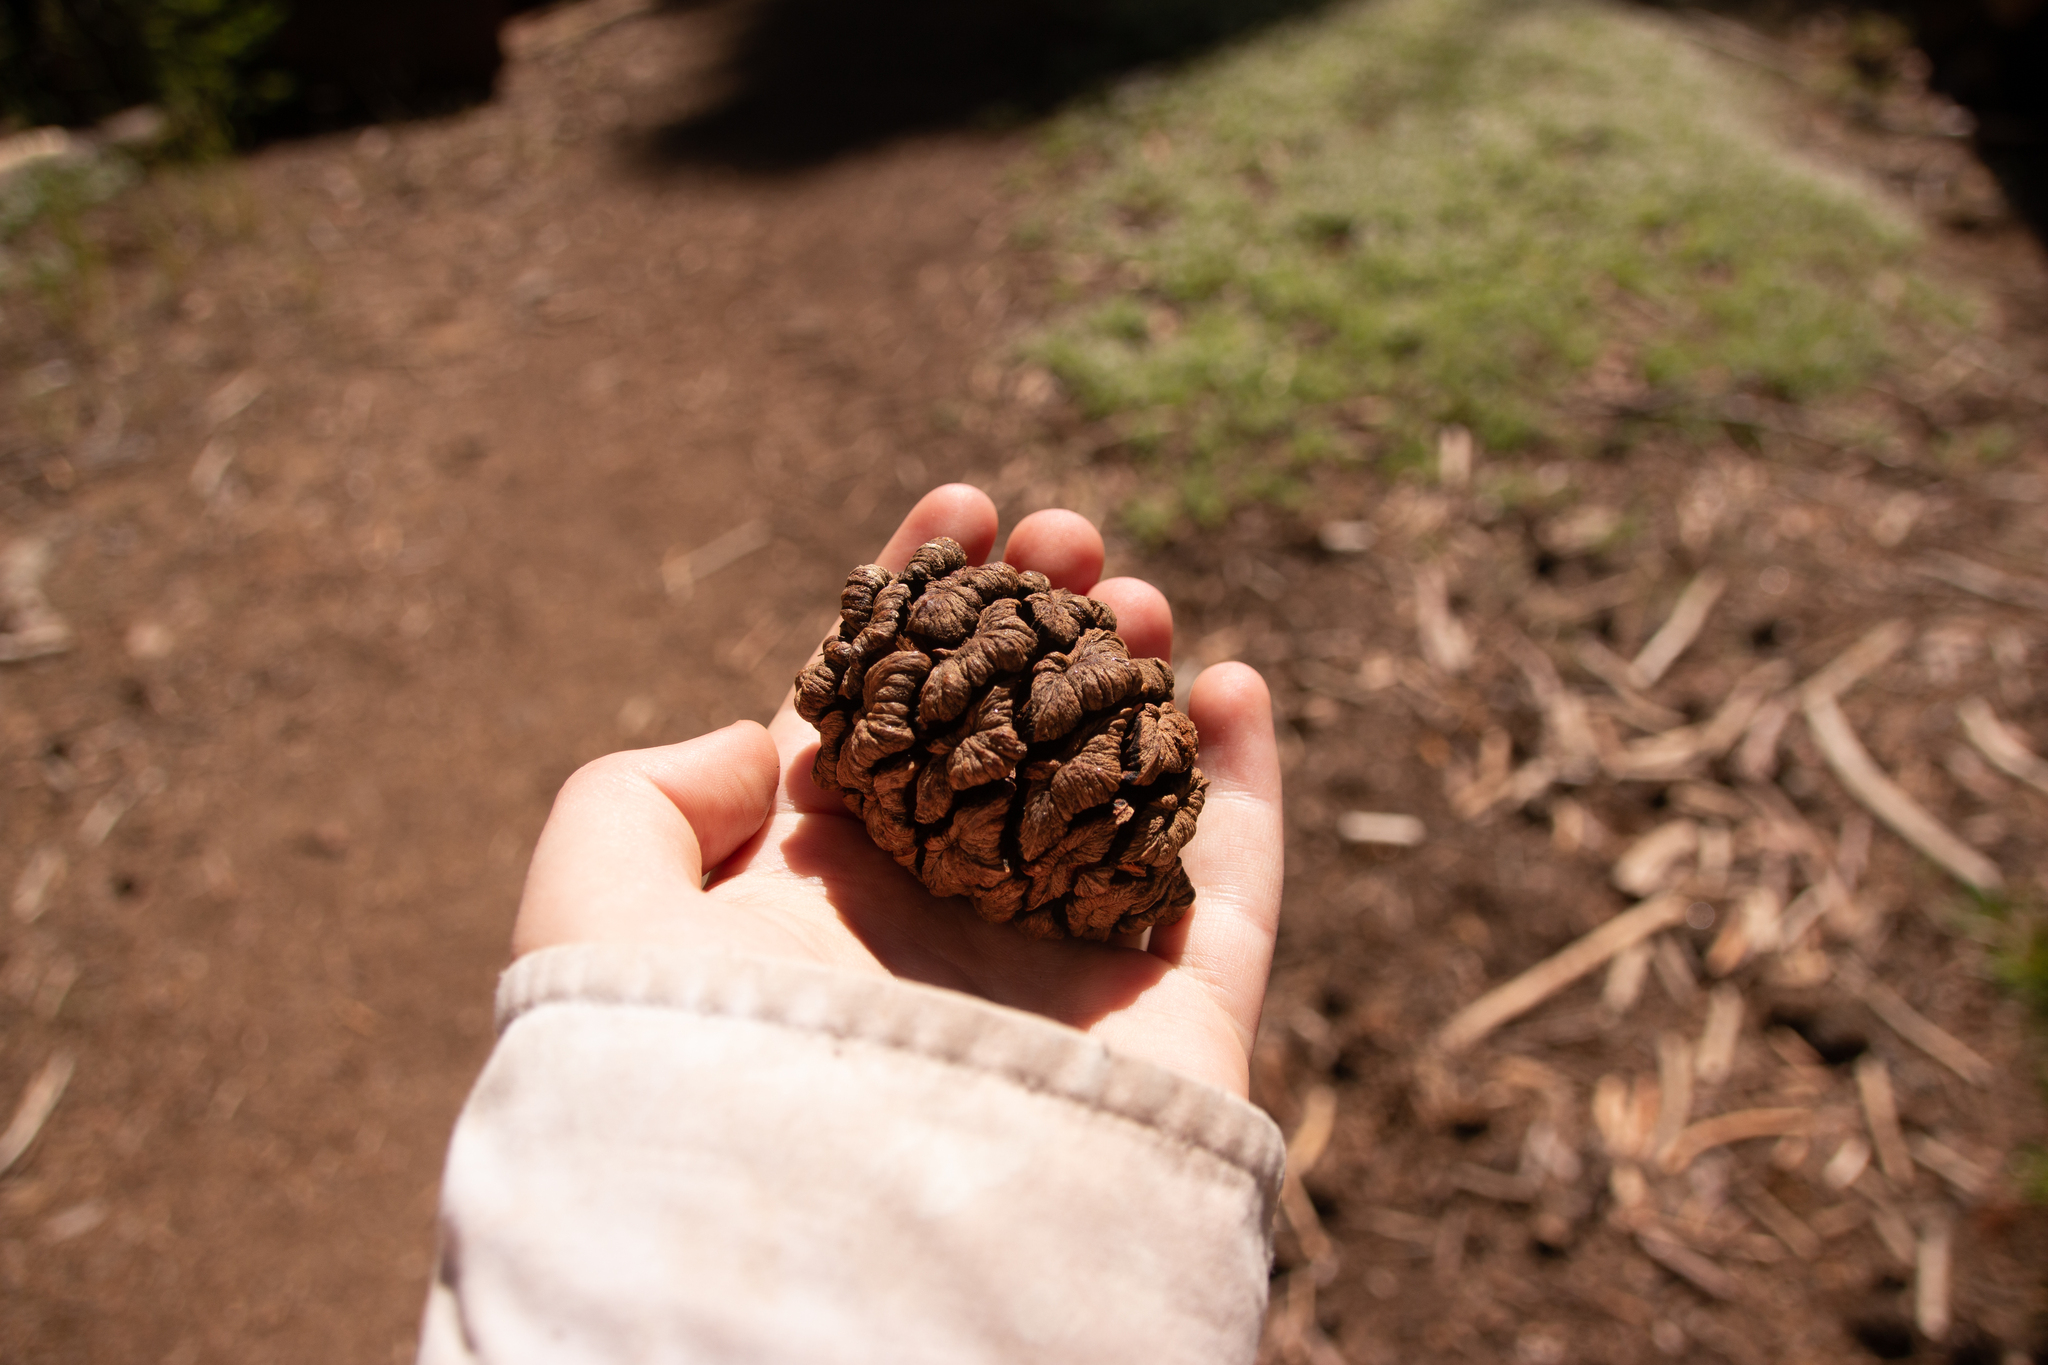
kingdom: Plantae
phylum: Tracheophyta
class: Pinopsida
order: Pinales
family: Cupressaceae
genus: Sequoiadendron
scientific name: Sequoiadendron giganteum
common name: Wellingtonia
